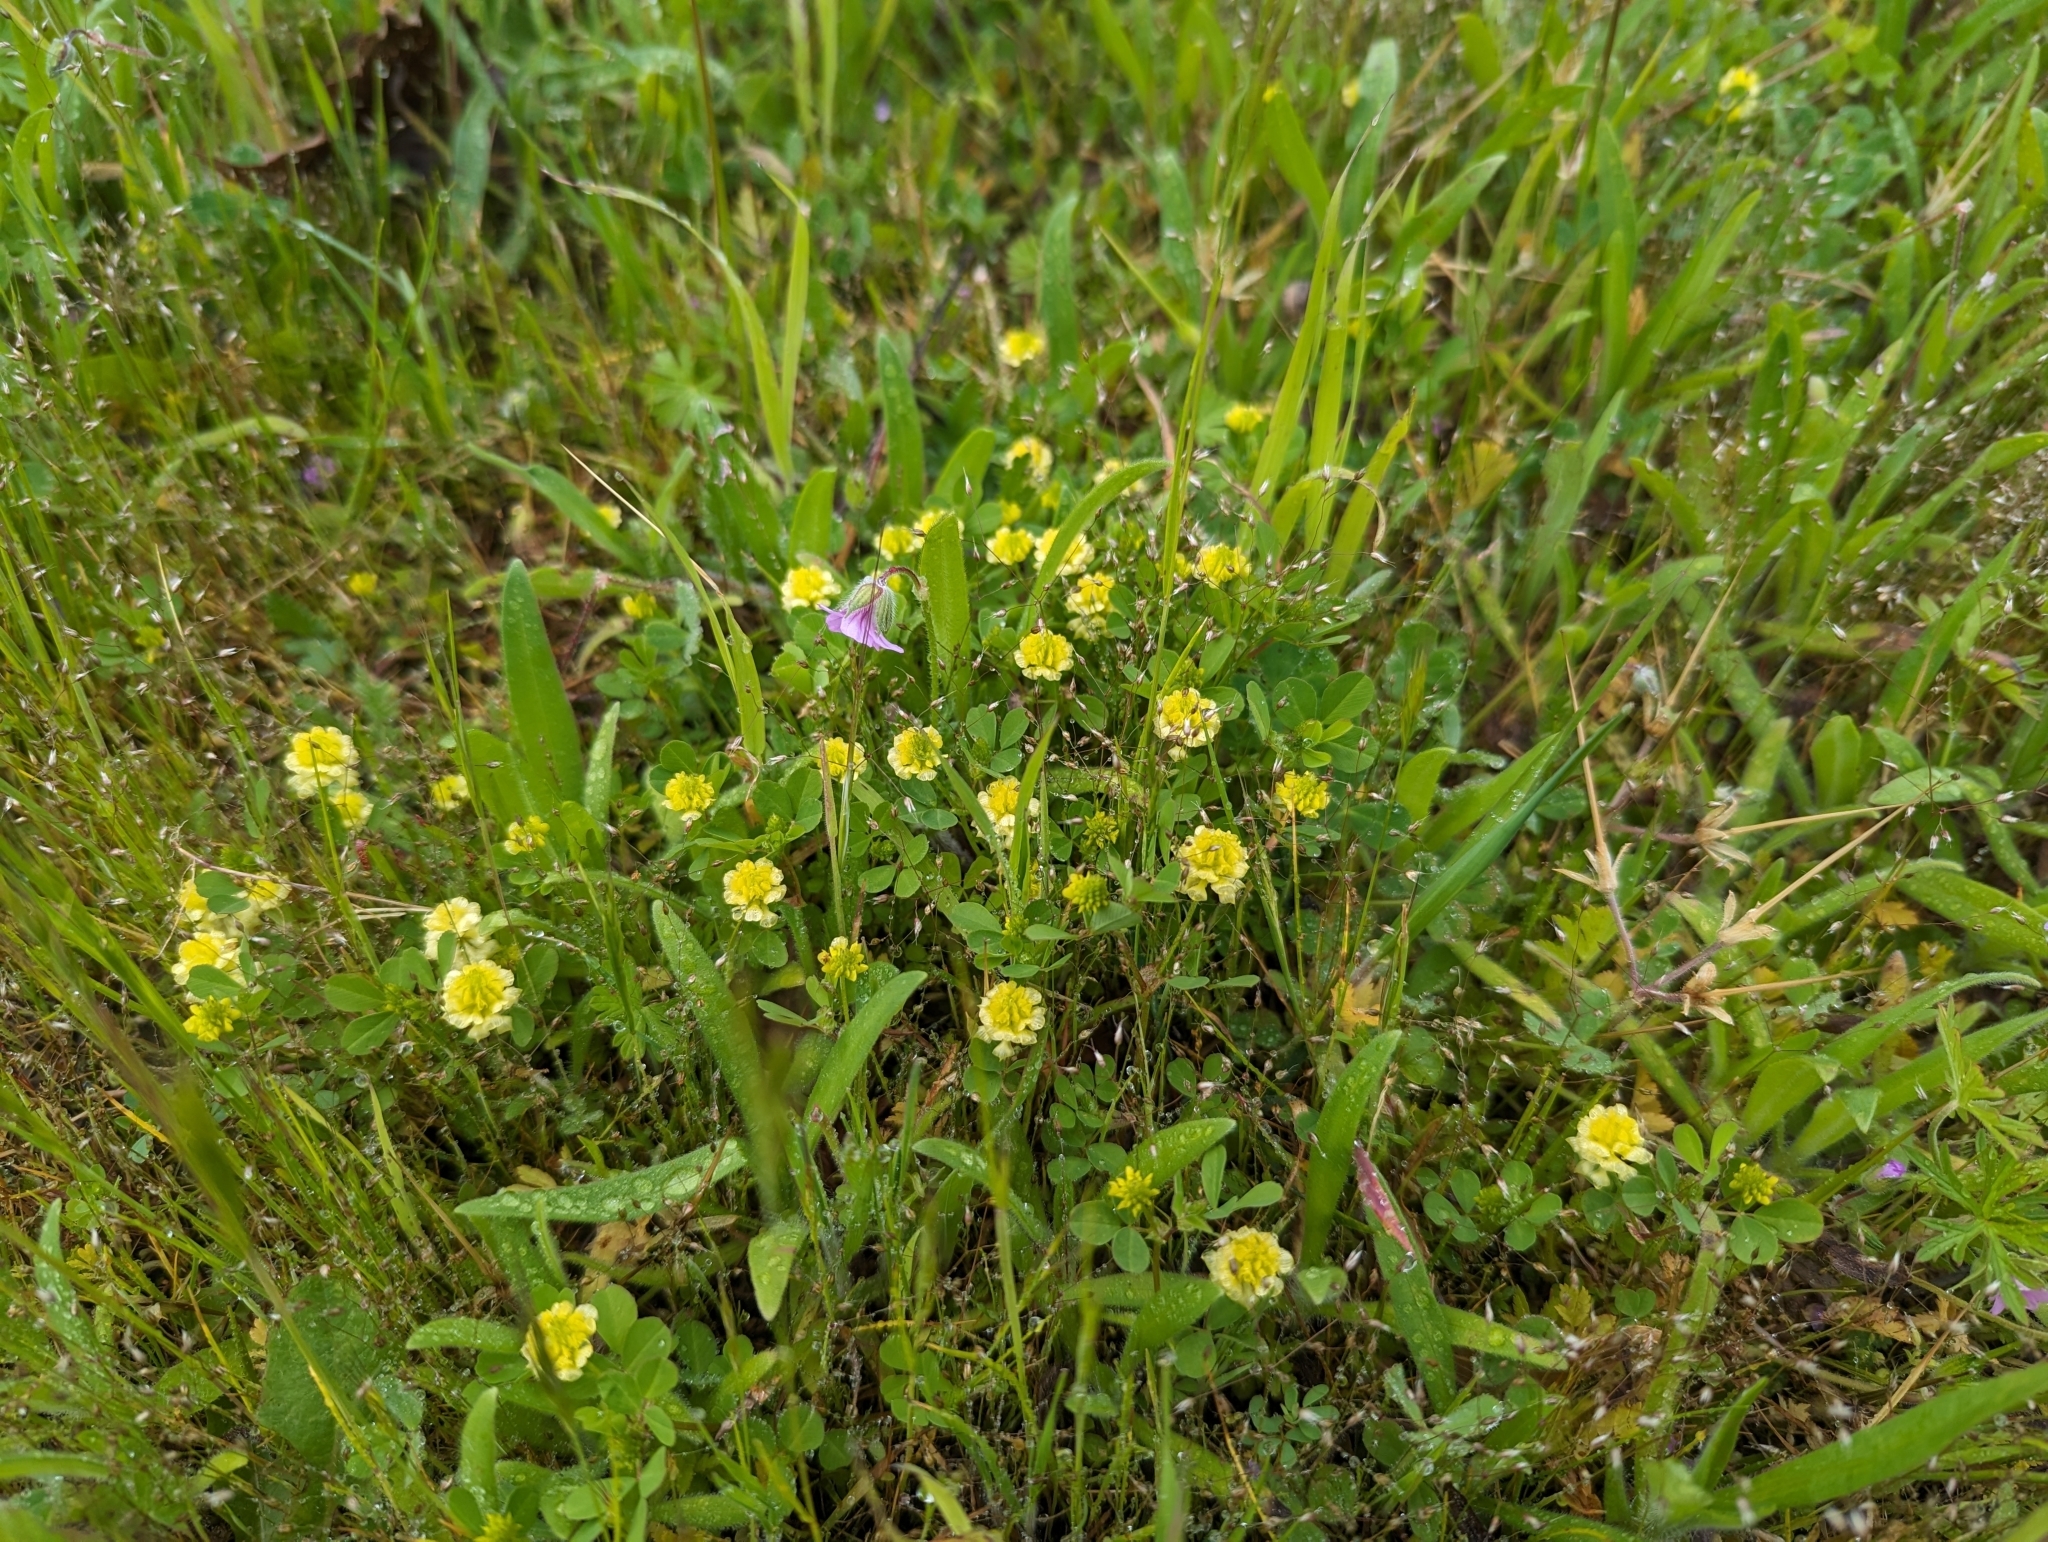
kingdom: Plantae
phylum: Tracheophyta
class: Magnoliopsida
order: Fabales
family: Fabaceae
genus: Trifolium
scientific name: Trifolium campestre
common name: Field clover
